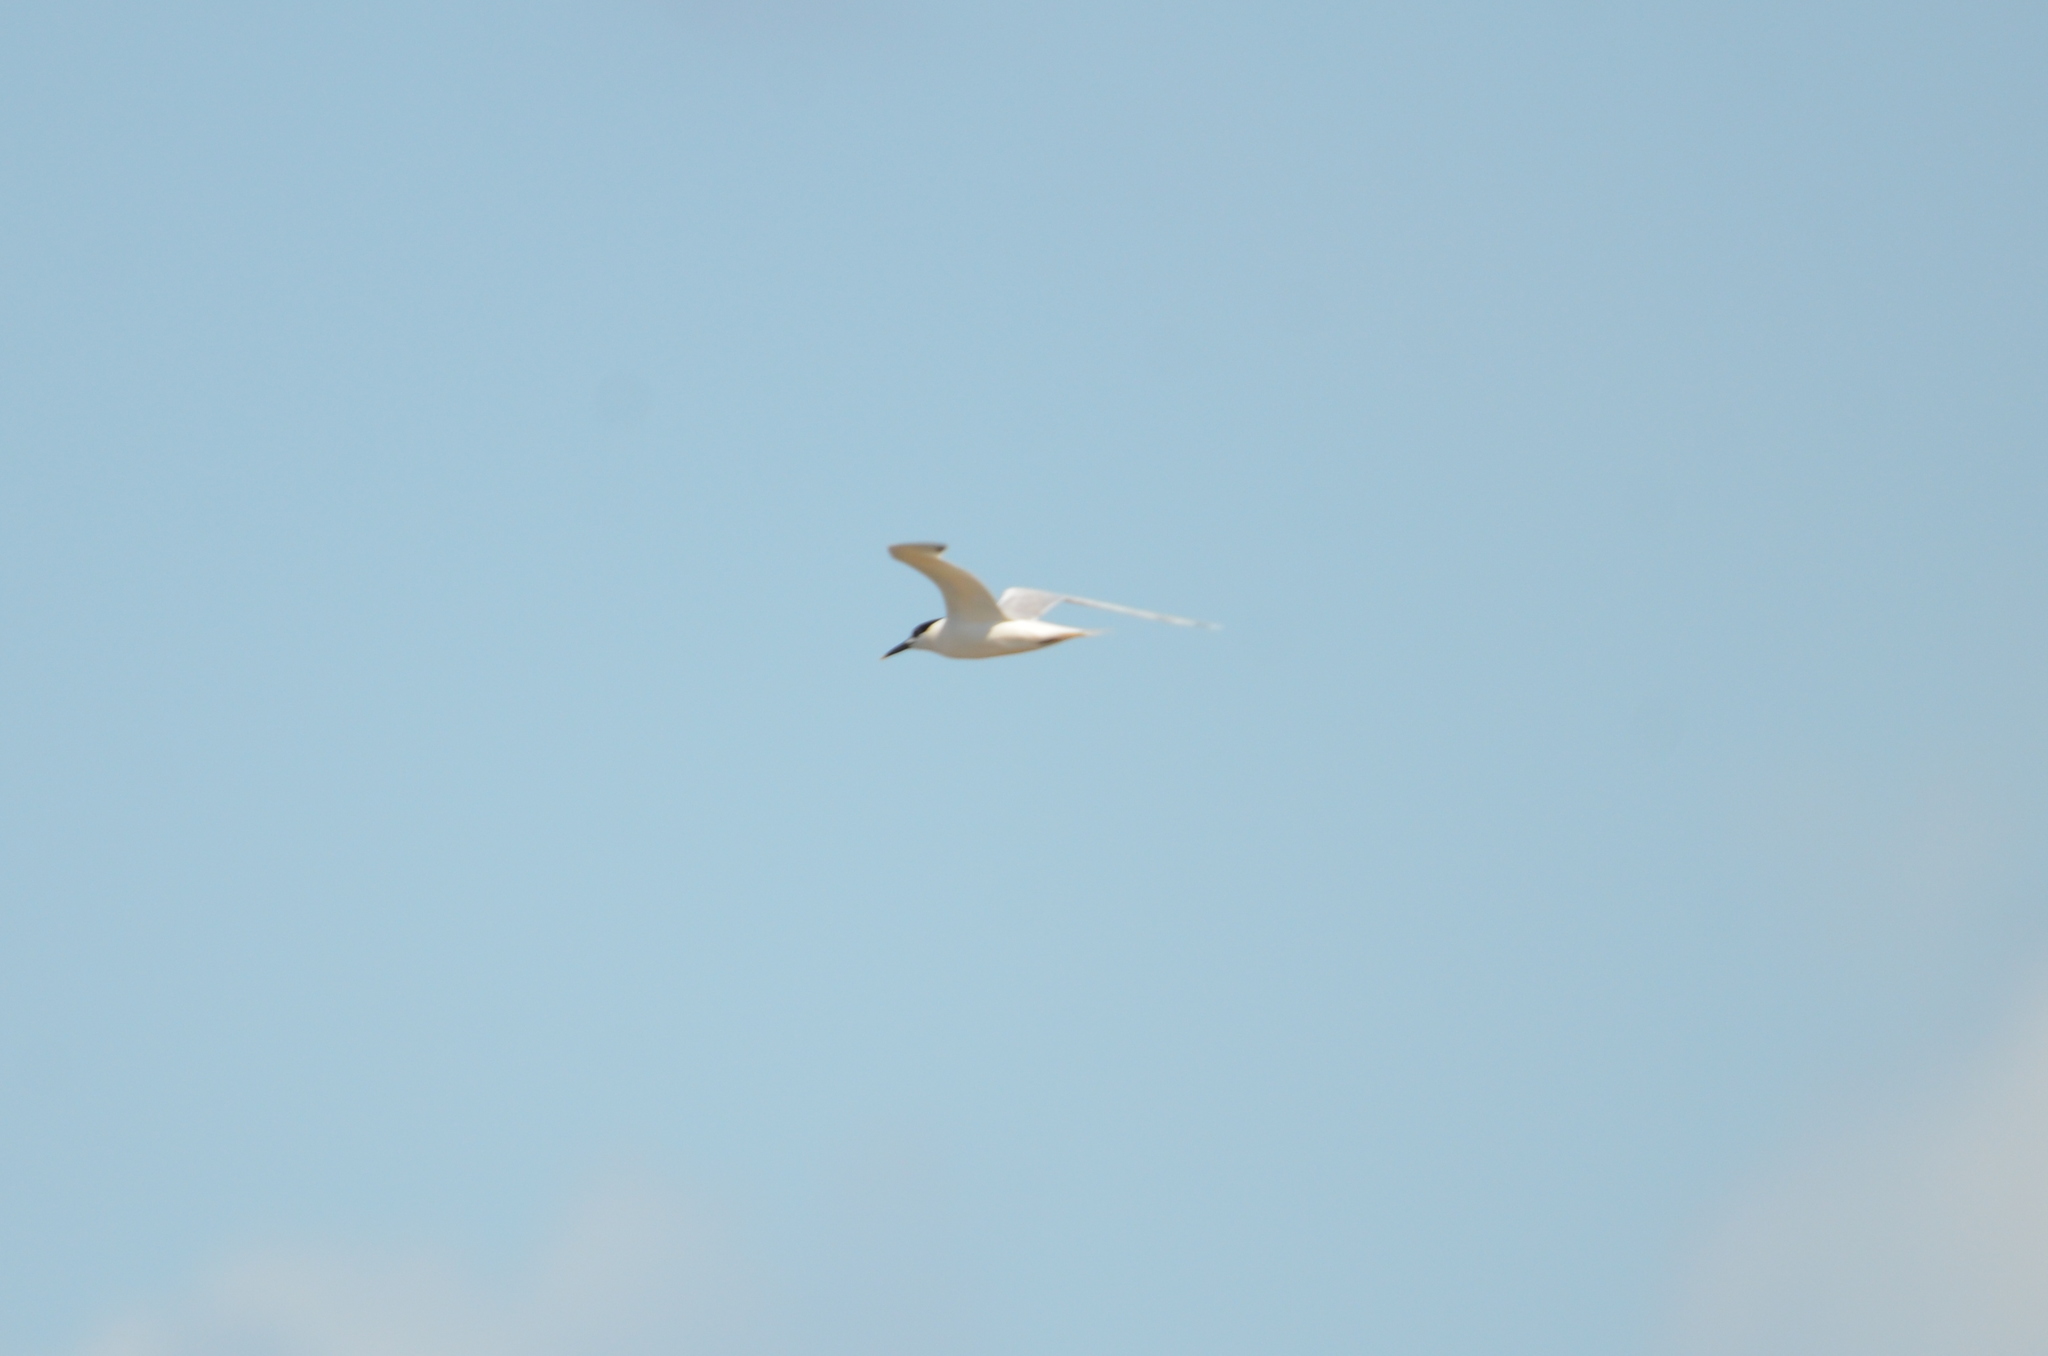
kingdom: Animalia
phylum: Chordata
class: Aves
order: Charadriiformes
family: Laridae
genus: Thalasseus
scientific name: Thalasseus sandvicensis
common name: Sandwich tern
